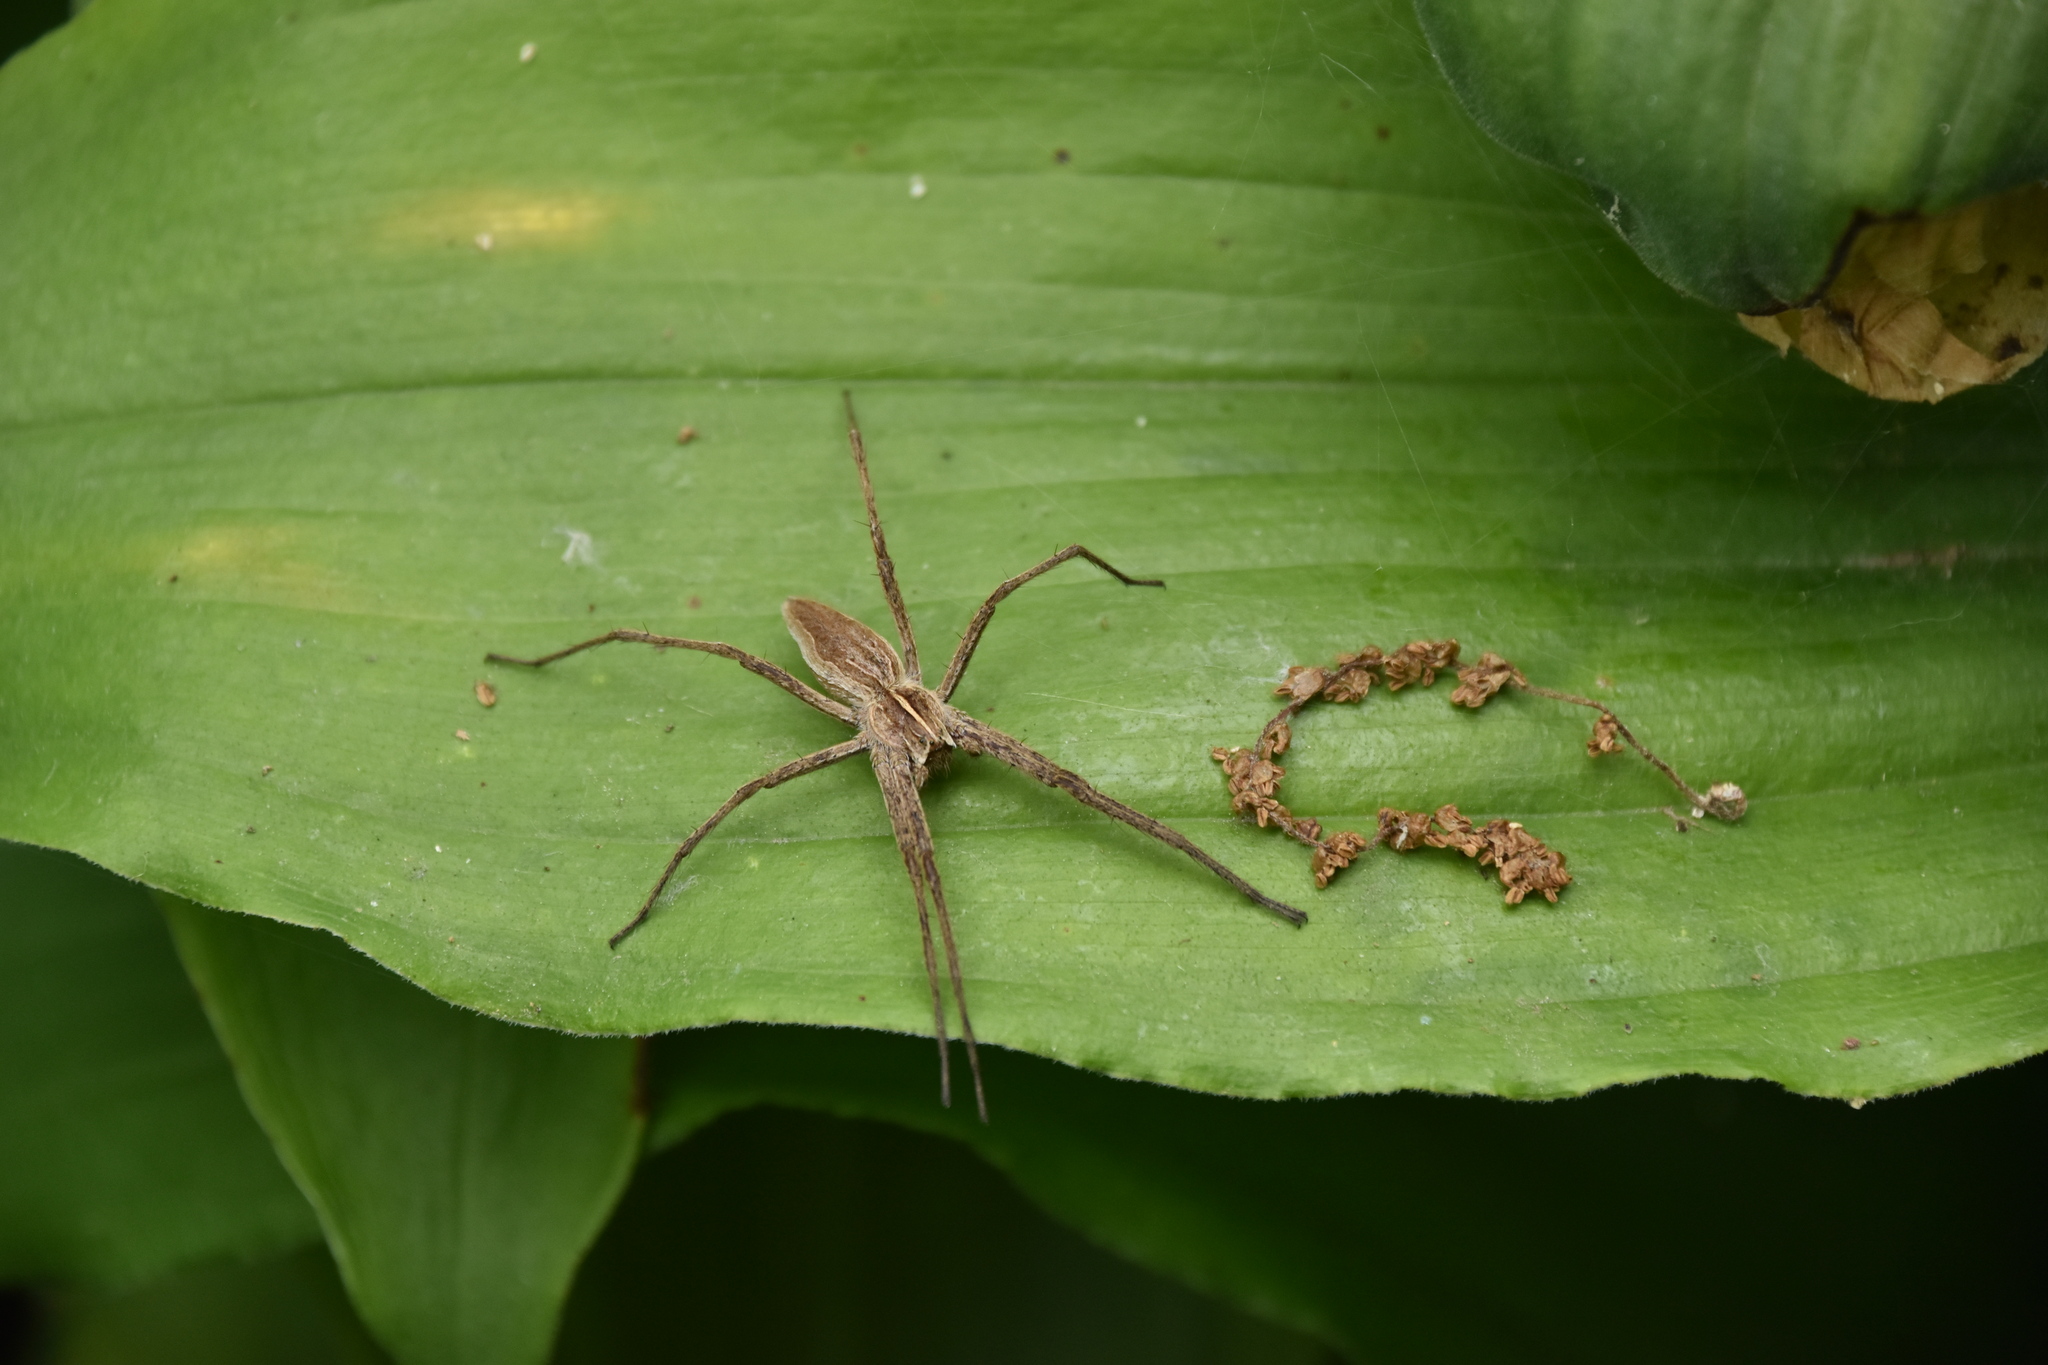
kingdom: Animalia
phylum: Arthropoda
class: Arachnida
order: Araneae
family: Pisauridae
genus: Pisaura
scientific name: Pisaura mirabilis
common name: Tent spider
